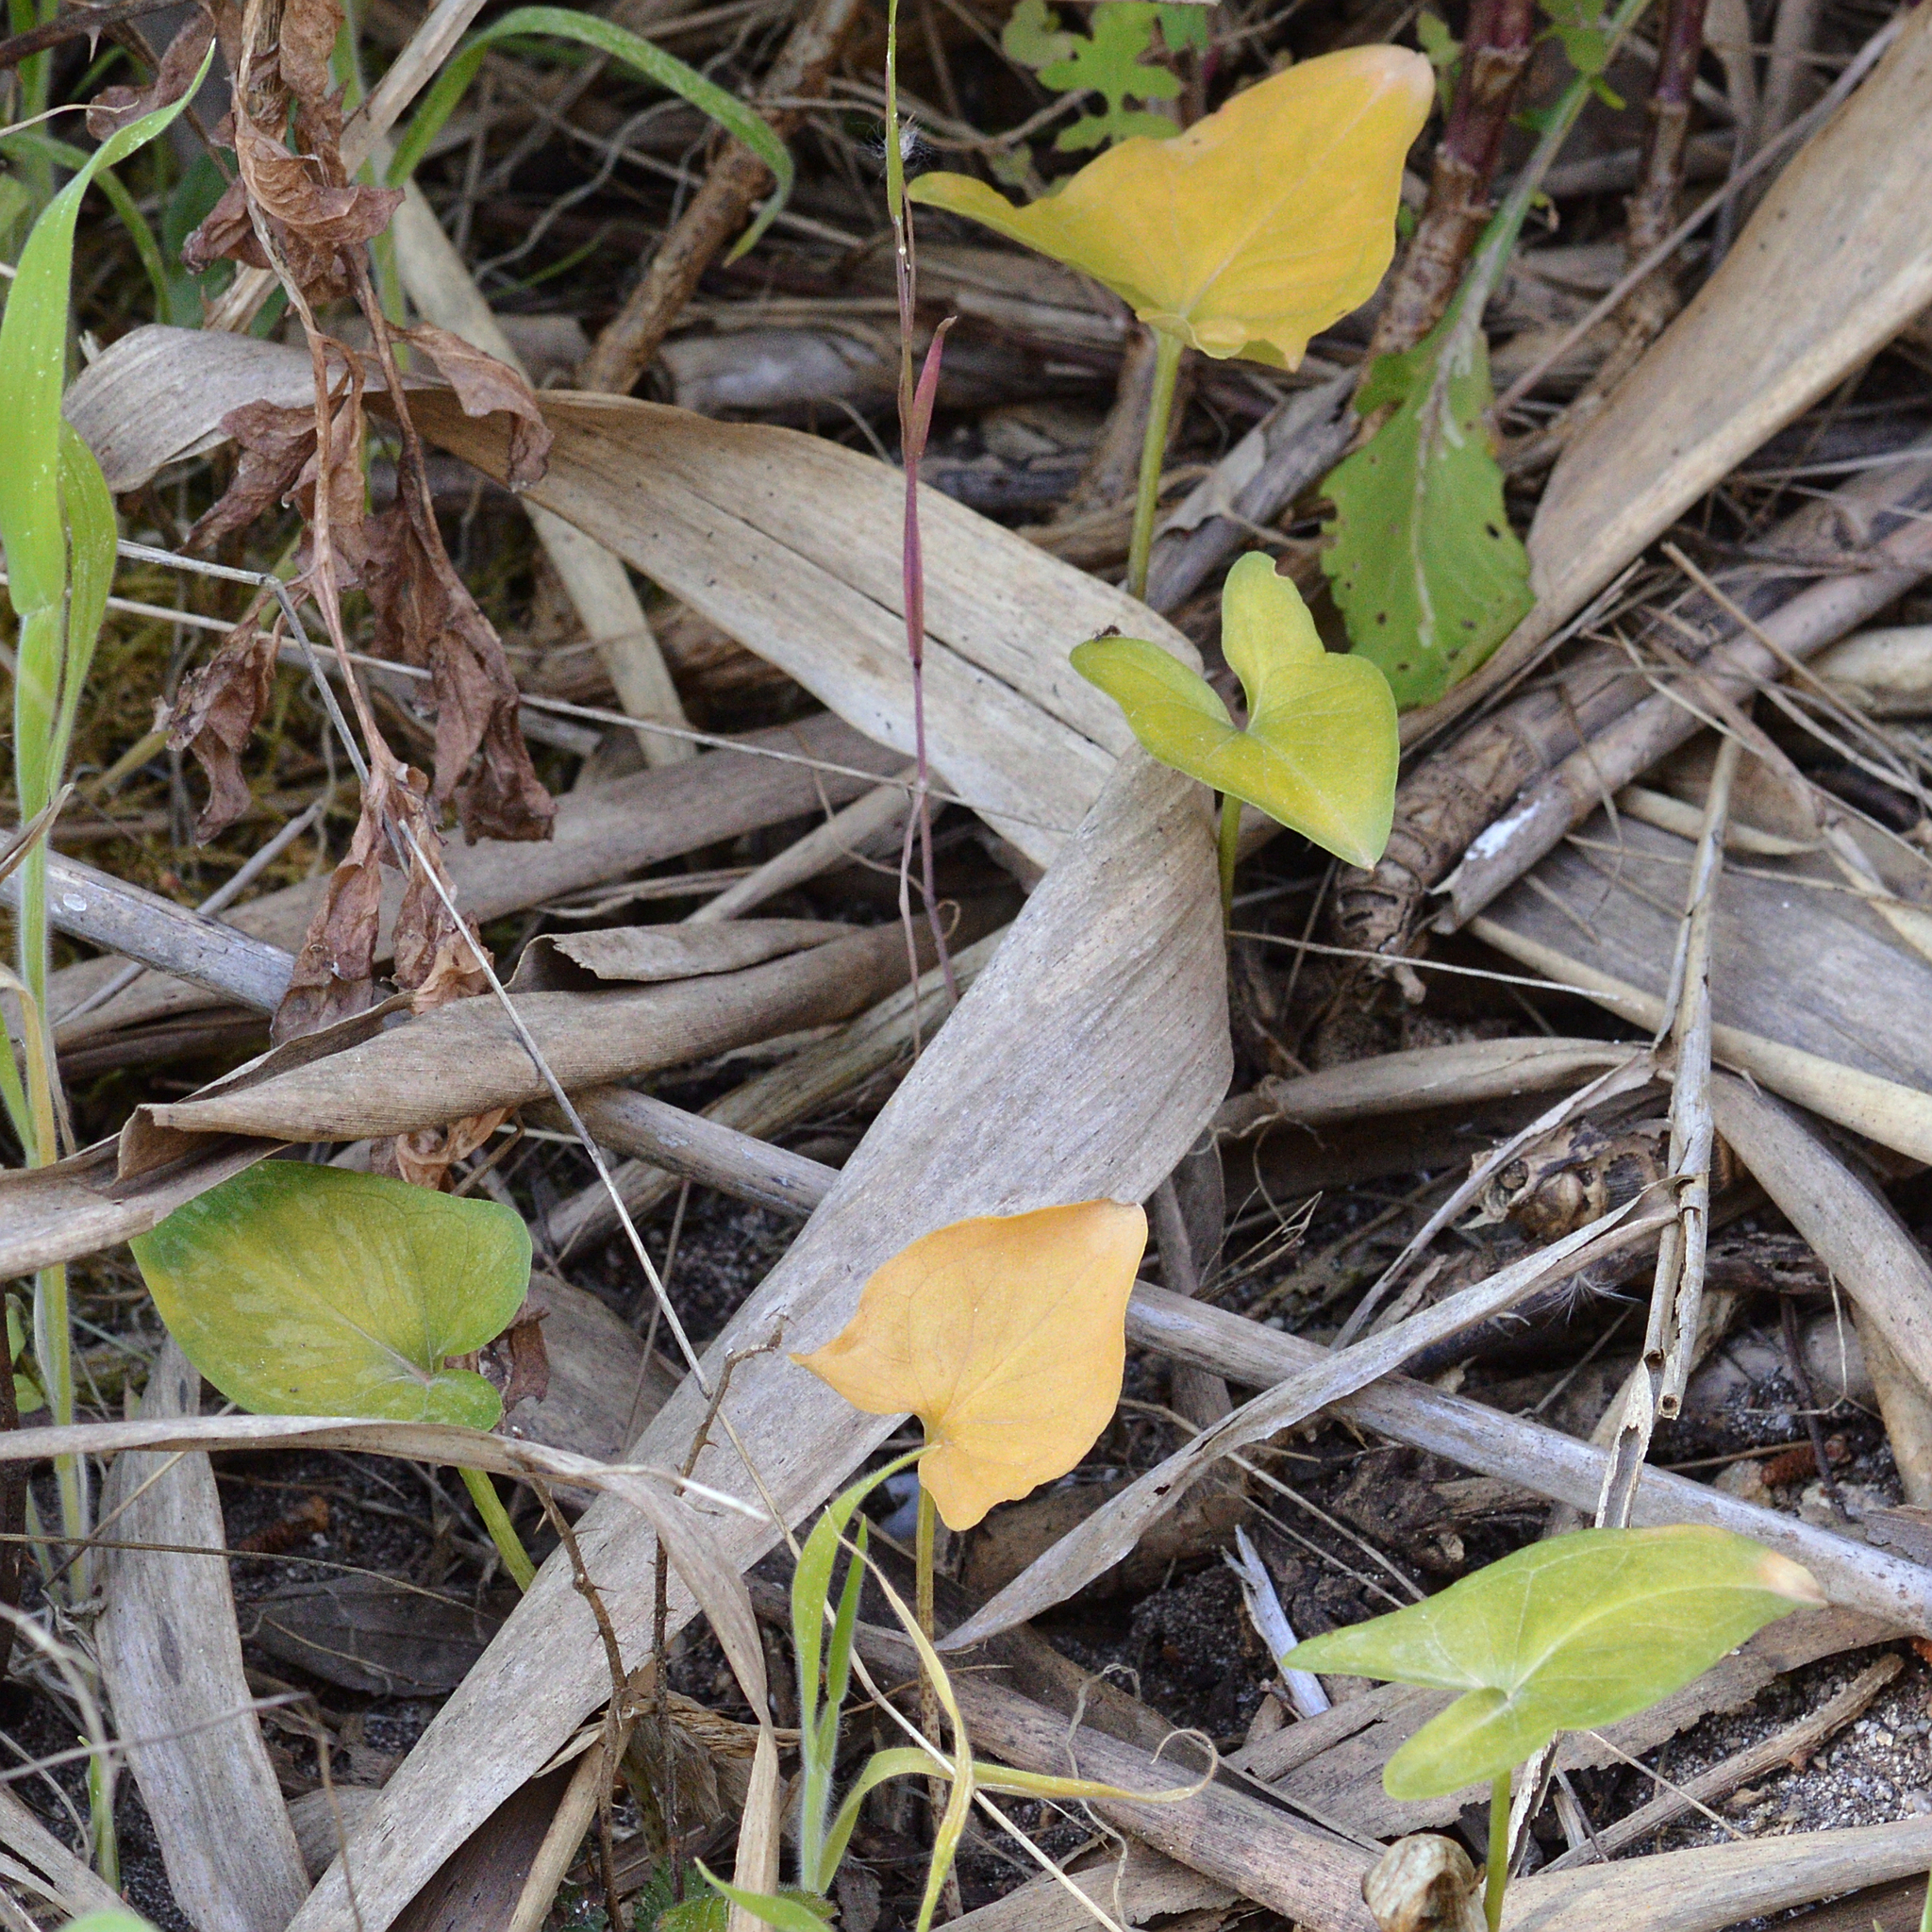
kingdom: Plantae
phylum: Tracheophyta
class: Liliopsida
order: Alismatales
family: Araceae
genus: Arisarum
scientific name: Arisarum vulgare
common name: Common arisarum
